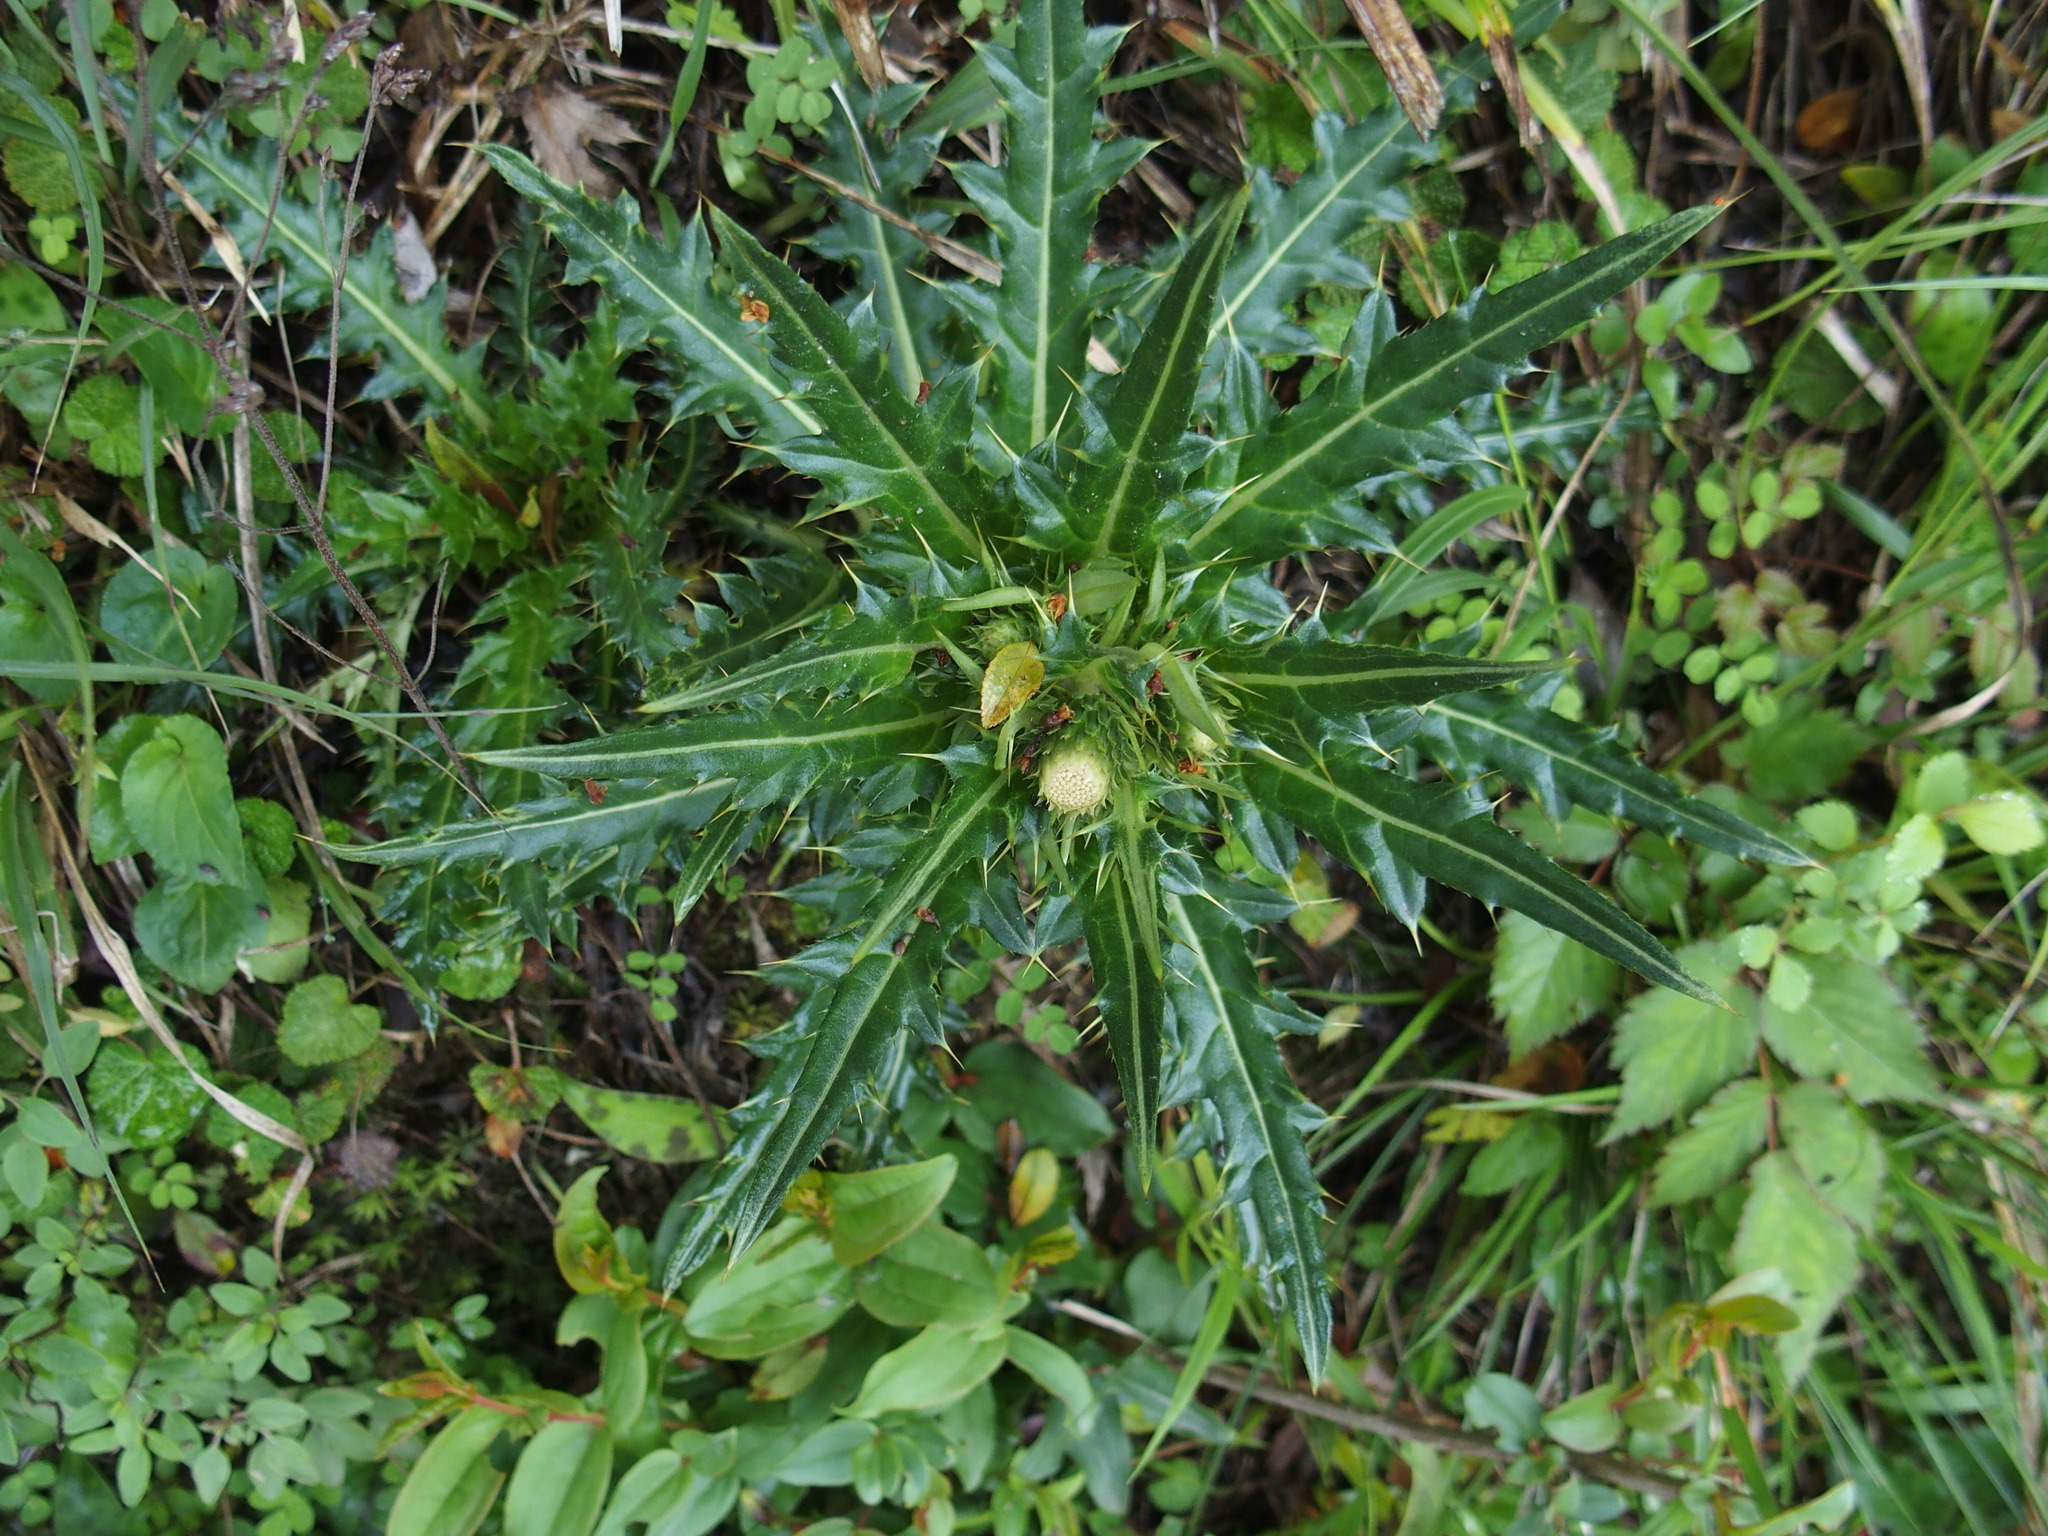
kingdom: Plantae
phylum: Tracheophyta
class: Magnoliopsida
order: Asterales
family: Asteraceae
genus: Cirsium
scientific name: Cirsium arisanense
